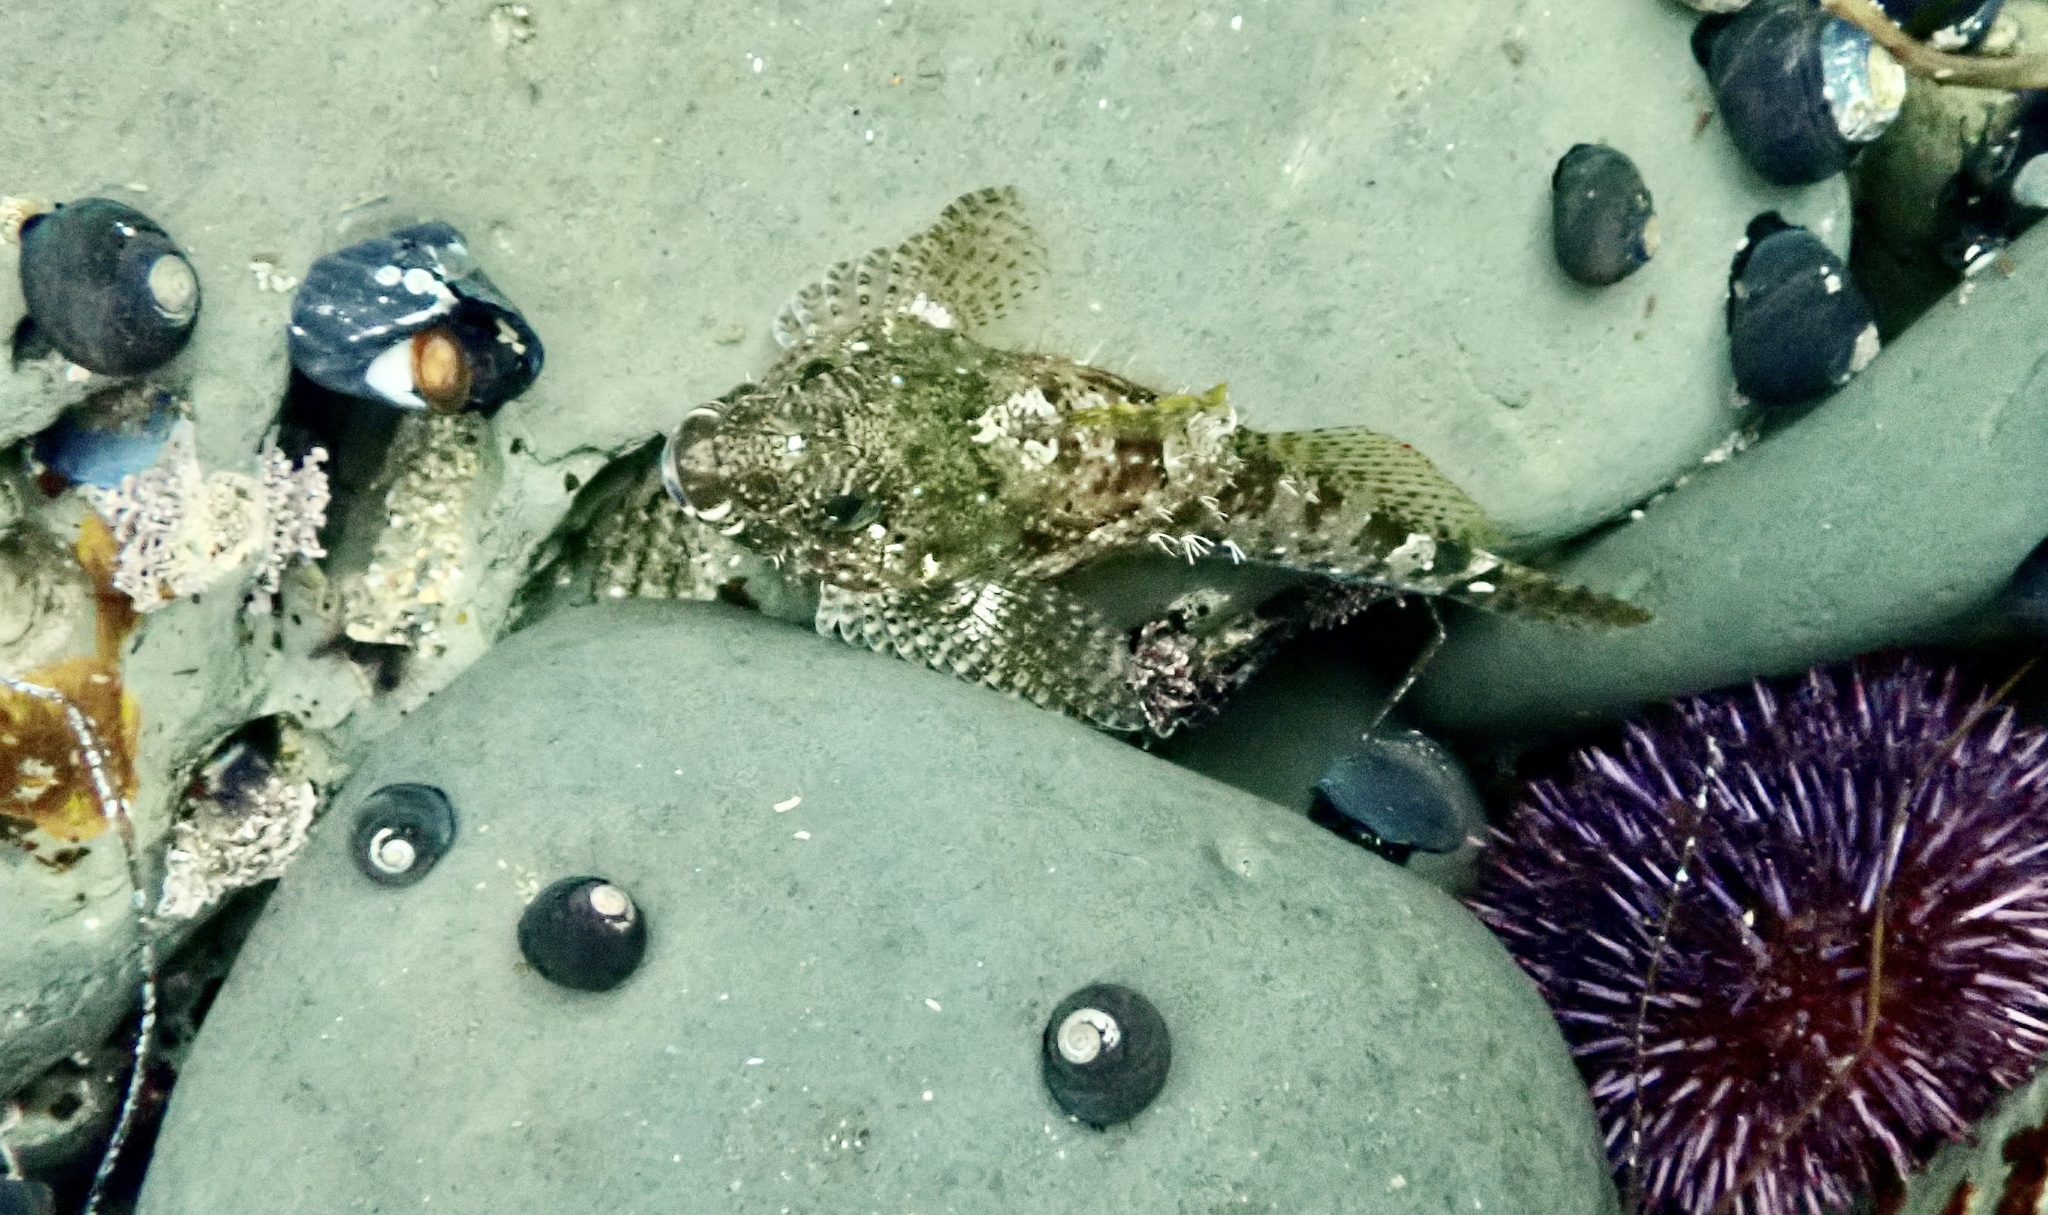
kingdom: Animalia
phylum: Chordata
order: Scorpaeniformes
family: Cottidae
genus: Clinocottus
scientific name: Clinocottus analis
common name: Woolly sculpin
